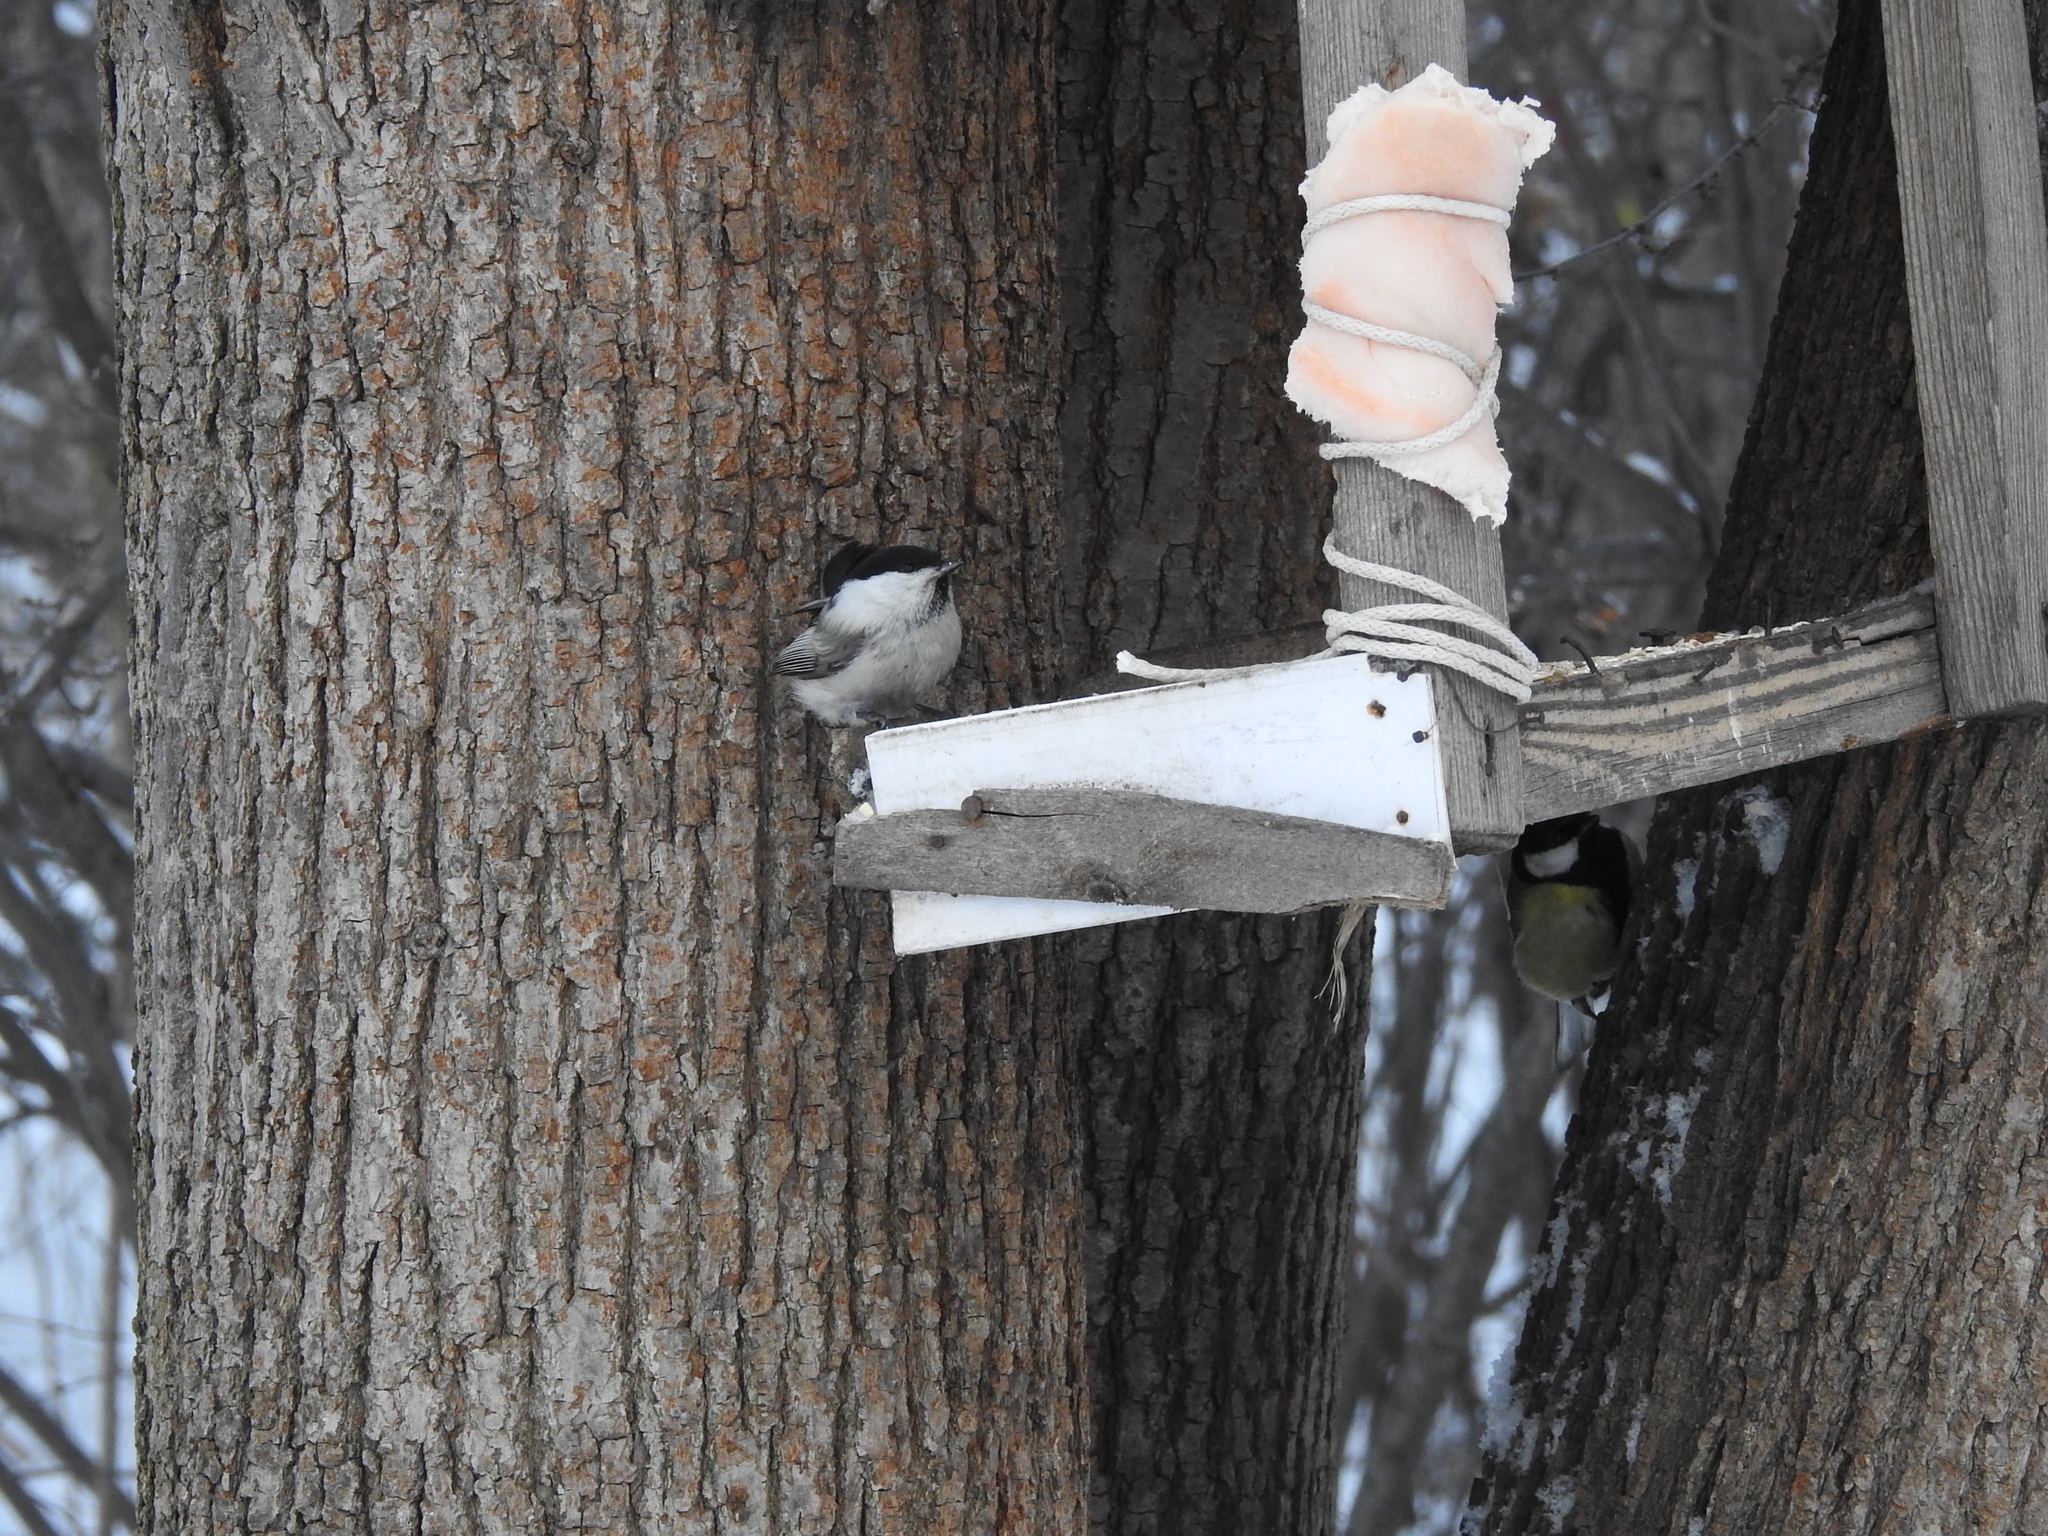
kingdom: Animalia
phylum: Chordata
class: Aves
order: Passeriformes
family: Paridae
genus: Poecile
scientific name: Poecile montanus
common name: Willow tit
